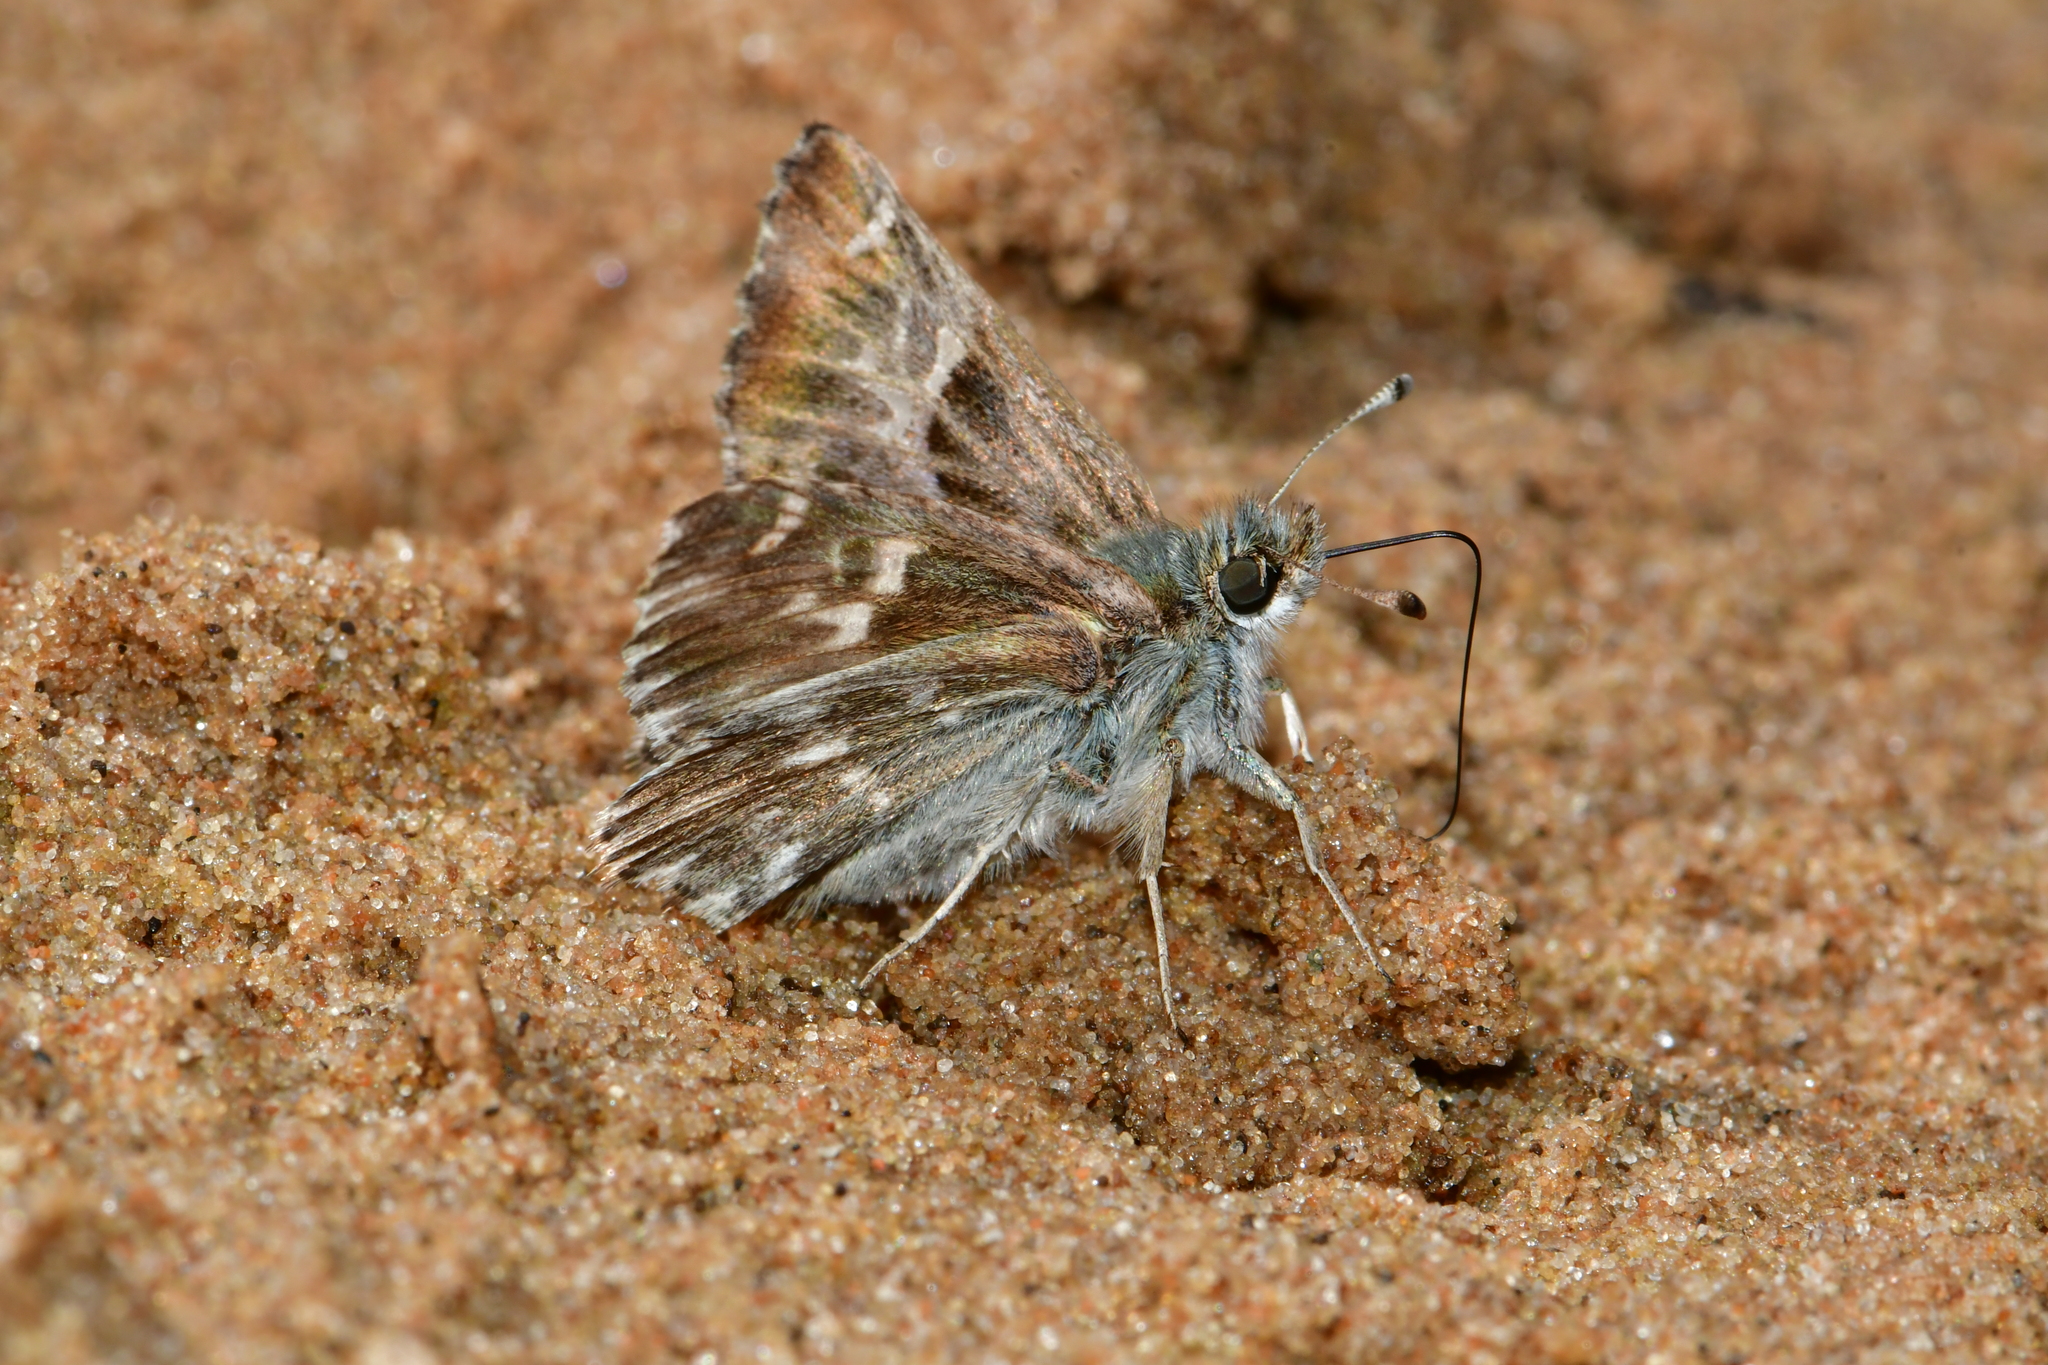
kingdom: Animalia
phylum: Arthropoda
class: Insecta
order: Lepidoptera
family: Hesperiidae
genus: Carcharodus
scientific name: Carcharodus floccifera
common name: Tufted marbled skipper
